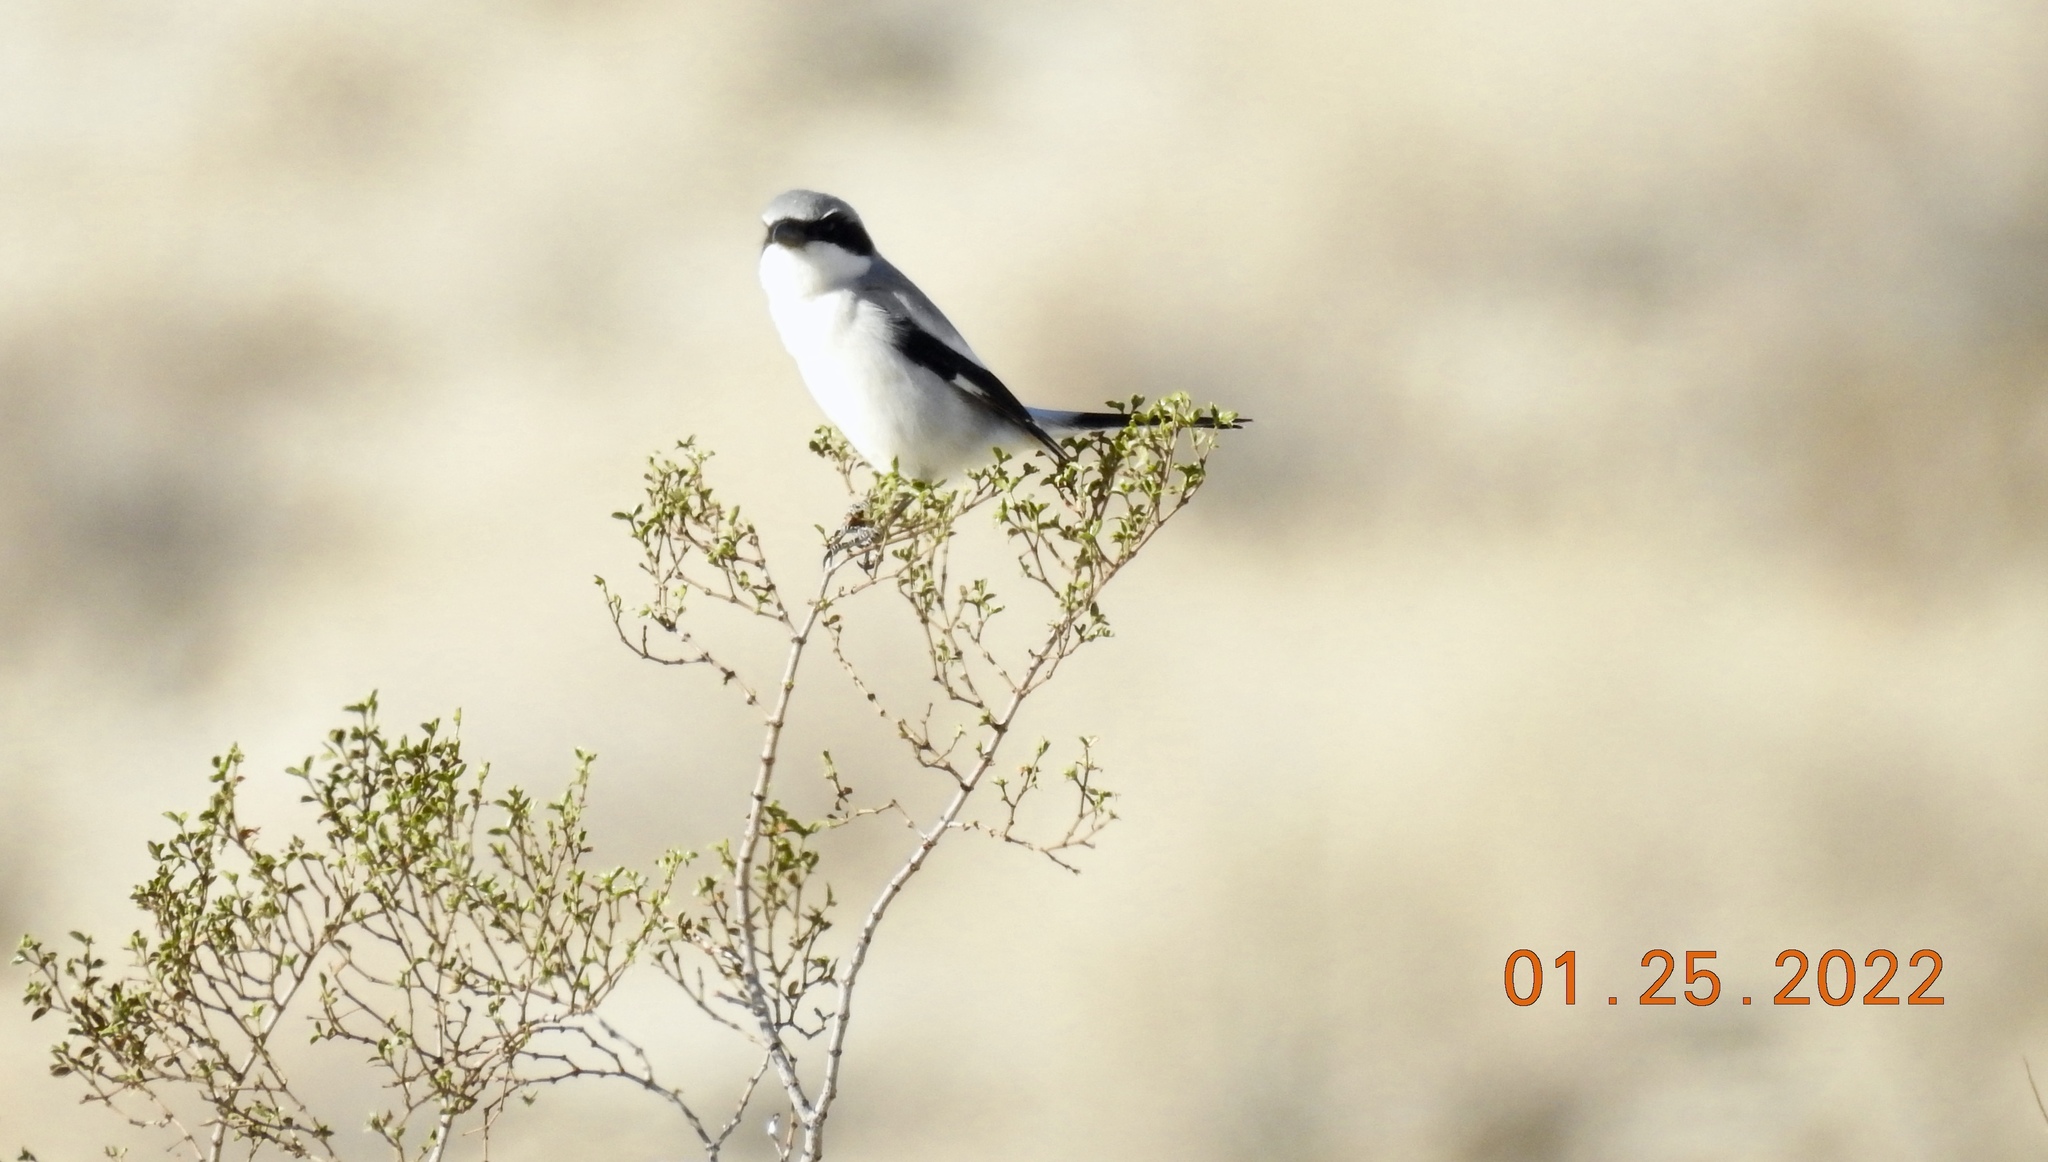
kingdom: Animalia
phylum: Chordata
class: Aves
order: Passeriformes
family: Laniidae
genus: Lanius
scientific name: Lanius ludovicianus
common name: Loggerhead shrike
